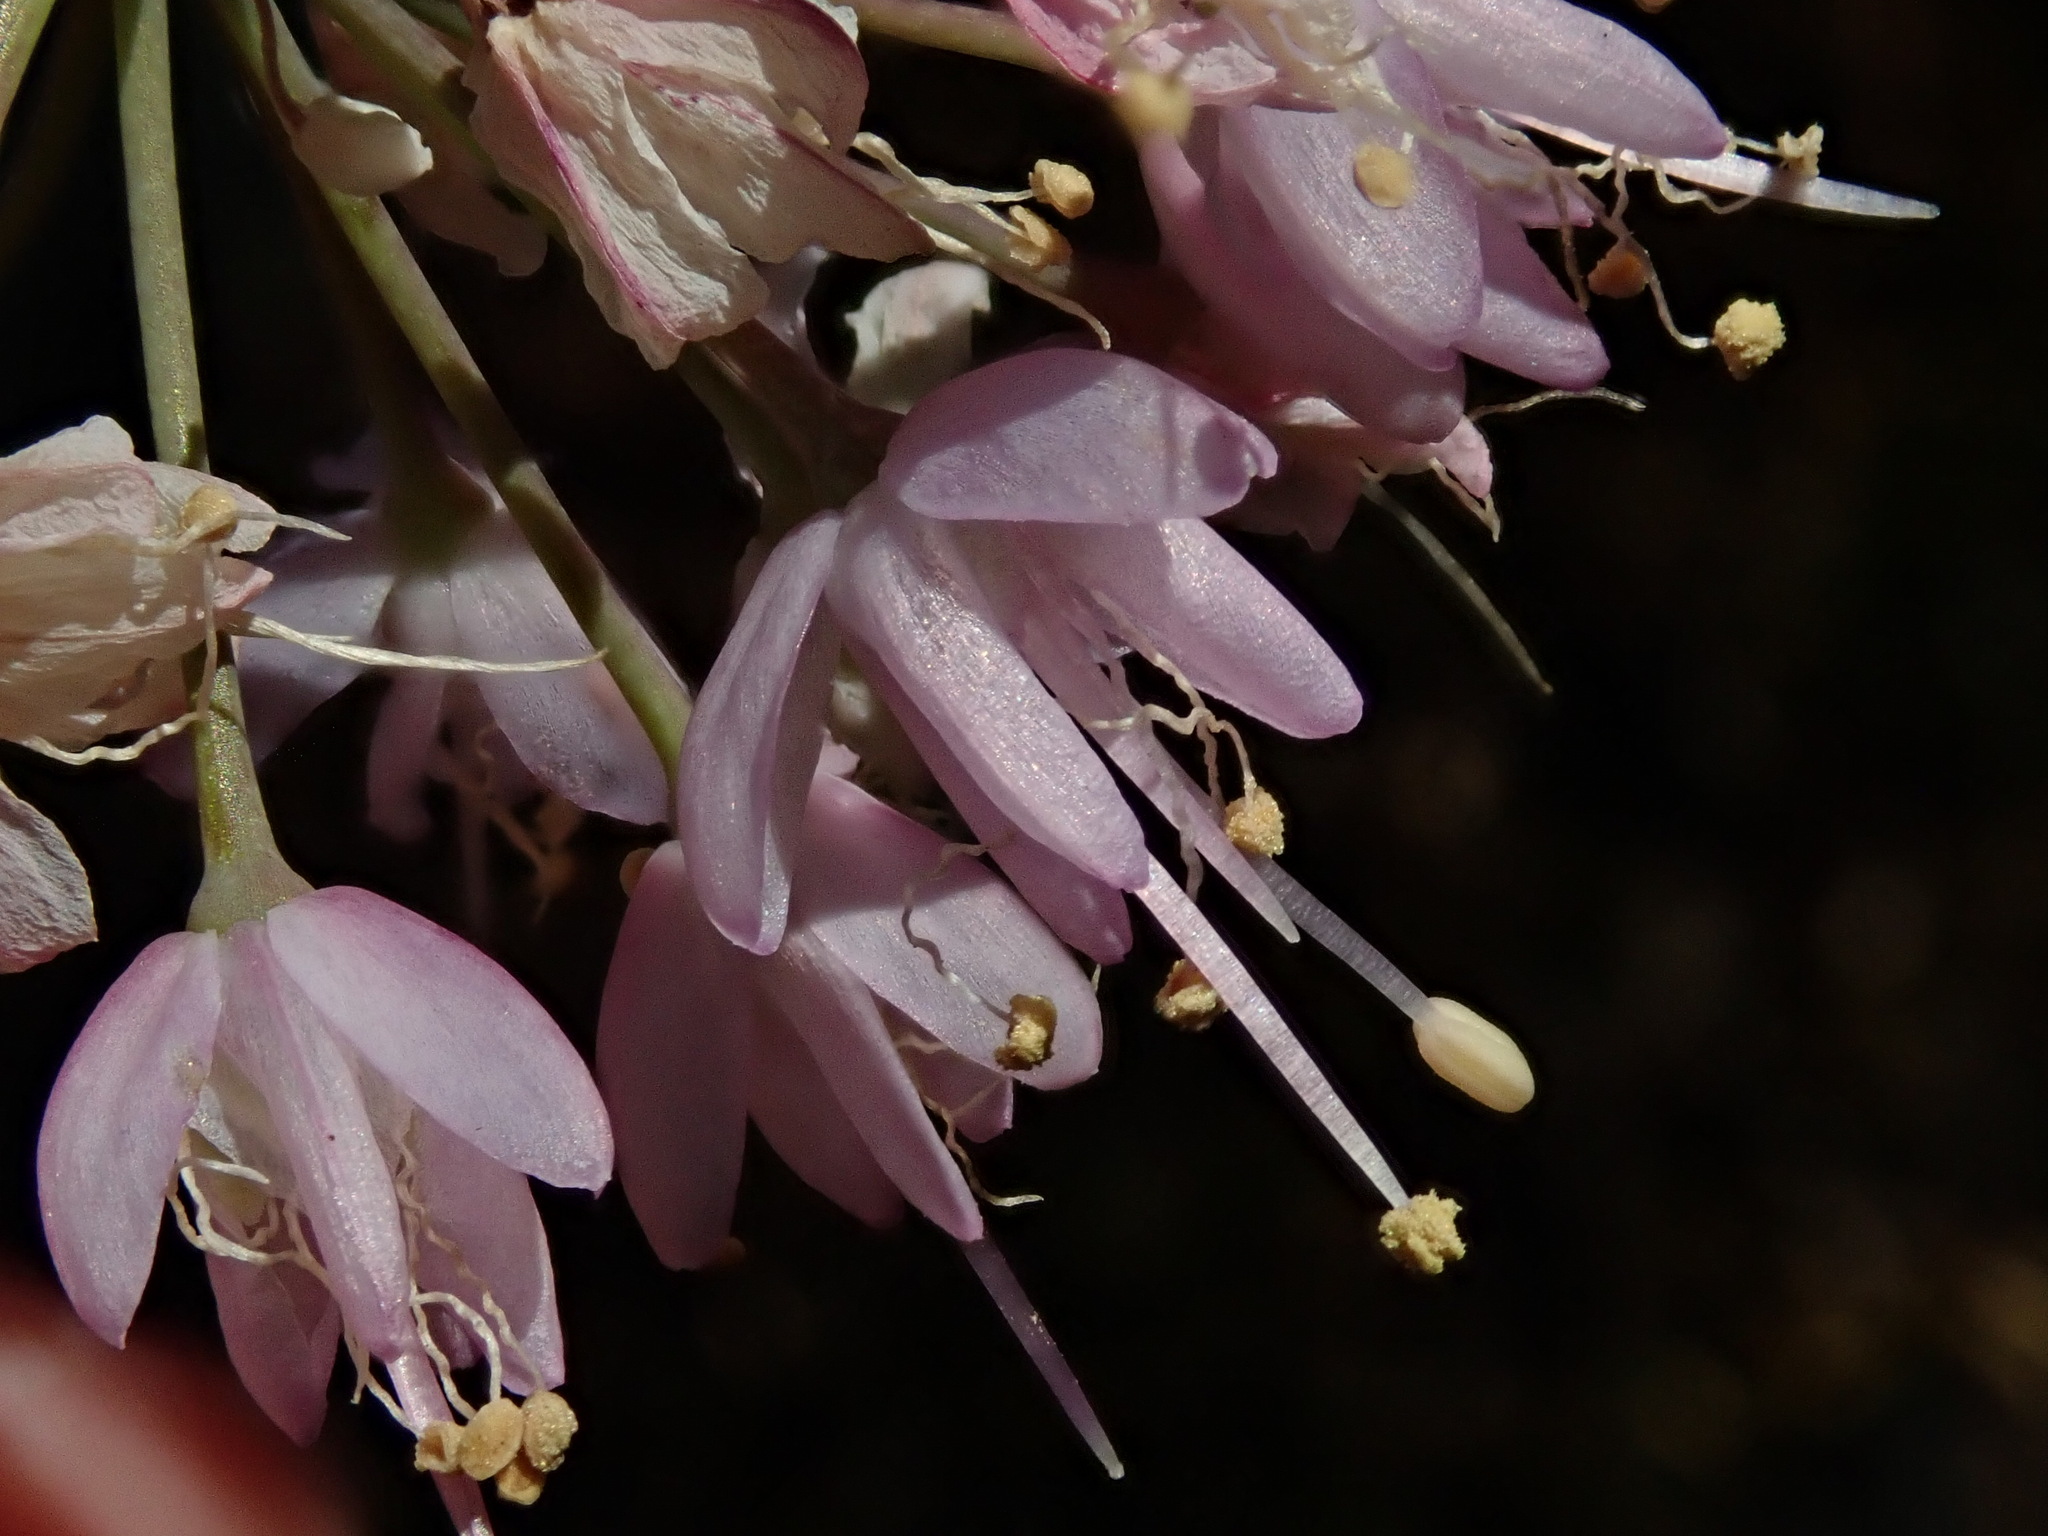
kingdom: Plantae
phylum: Tracheophyta
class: Liliopsida
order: Asparagales
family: Amaryllidaceae
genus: Allium
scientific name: Allium cernuum
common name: Nodding onion
